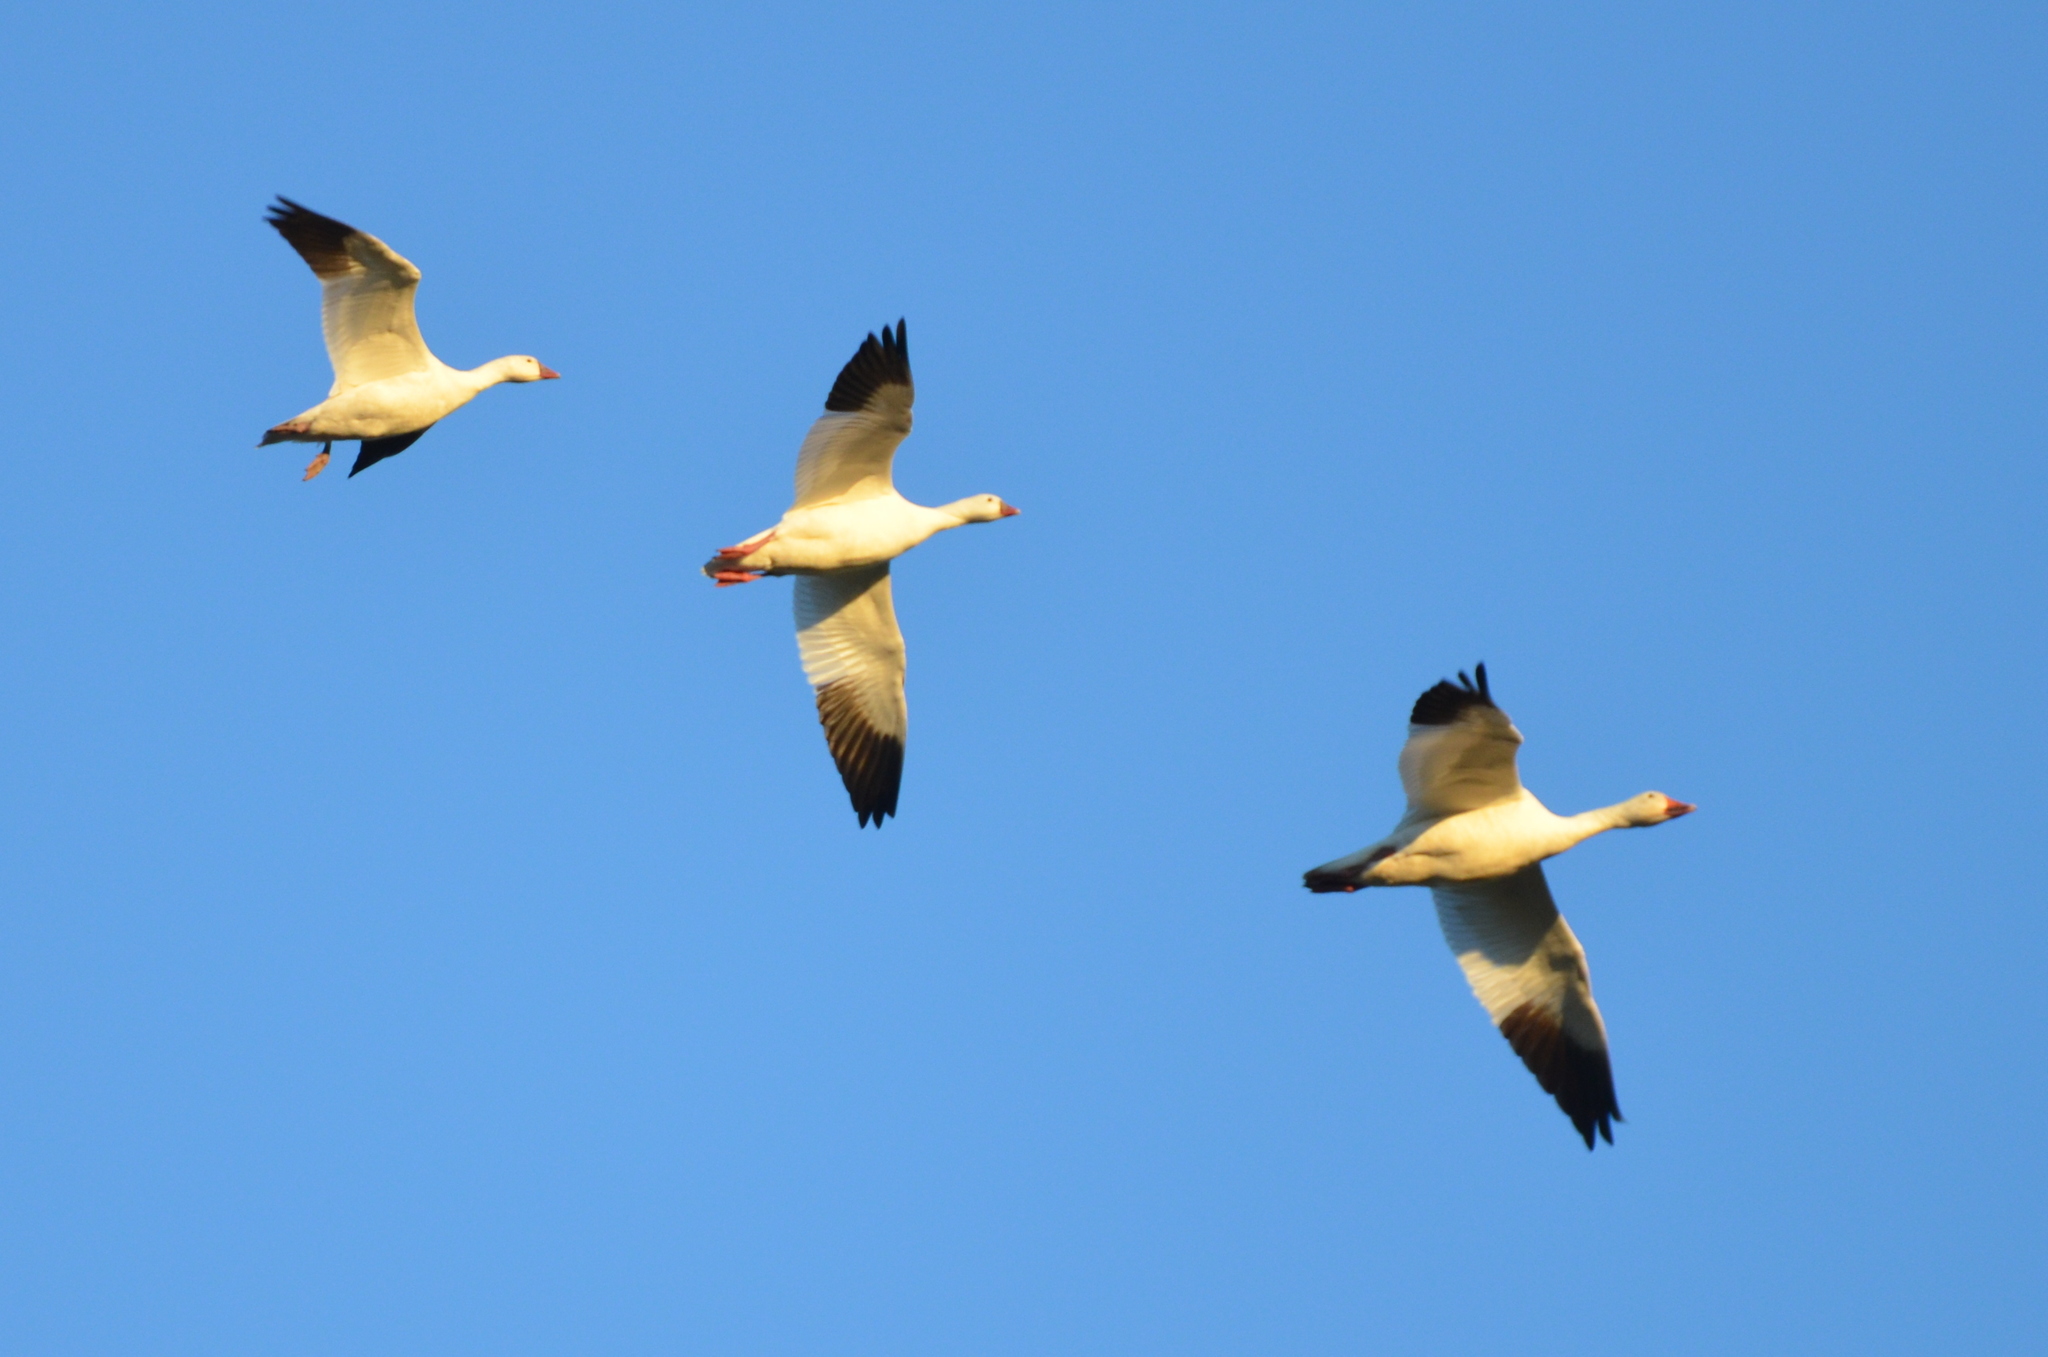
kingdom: Animalia
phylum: Chordata
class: Aves
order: Anseriformes
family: Anatidae
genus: Anser
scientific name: Anser rossii
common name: Ross's goose
